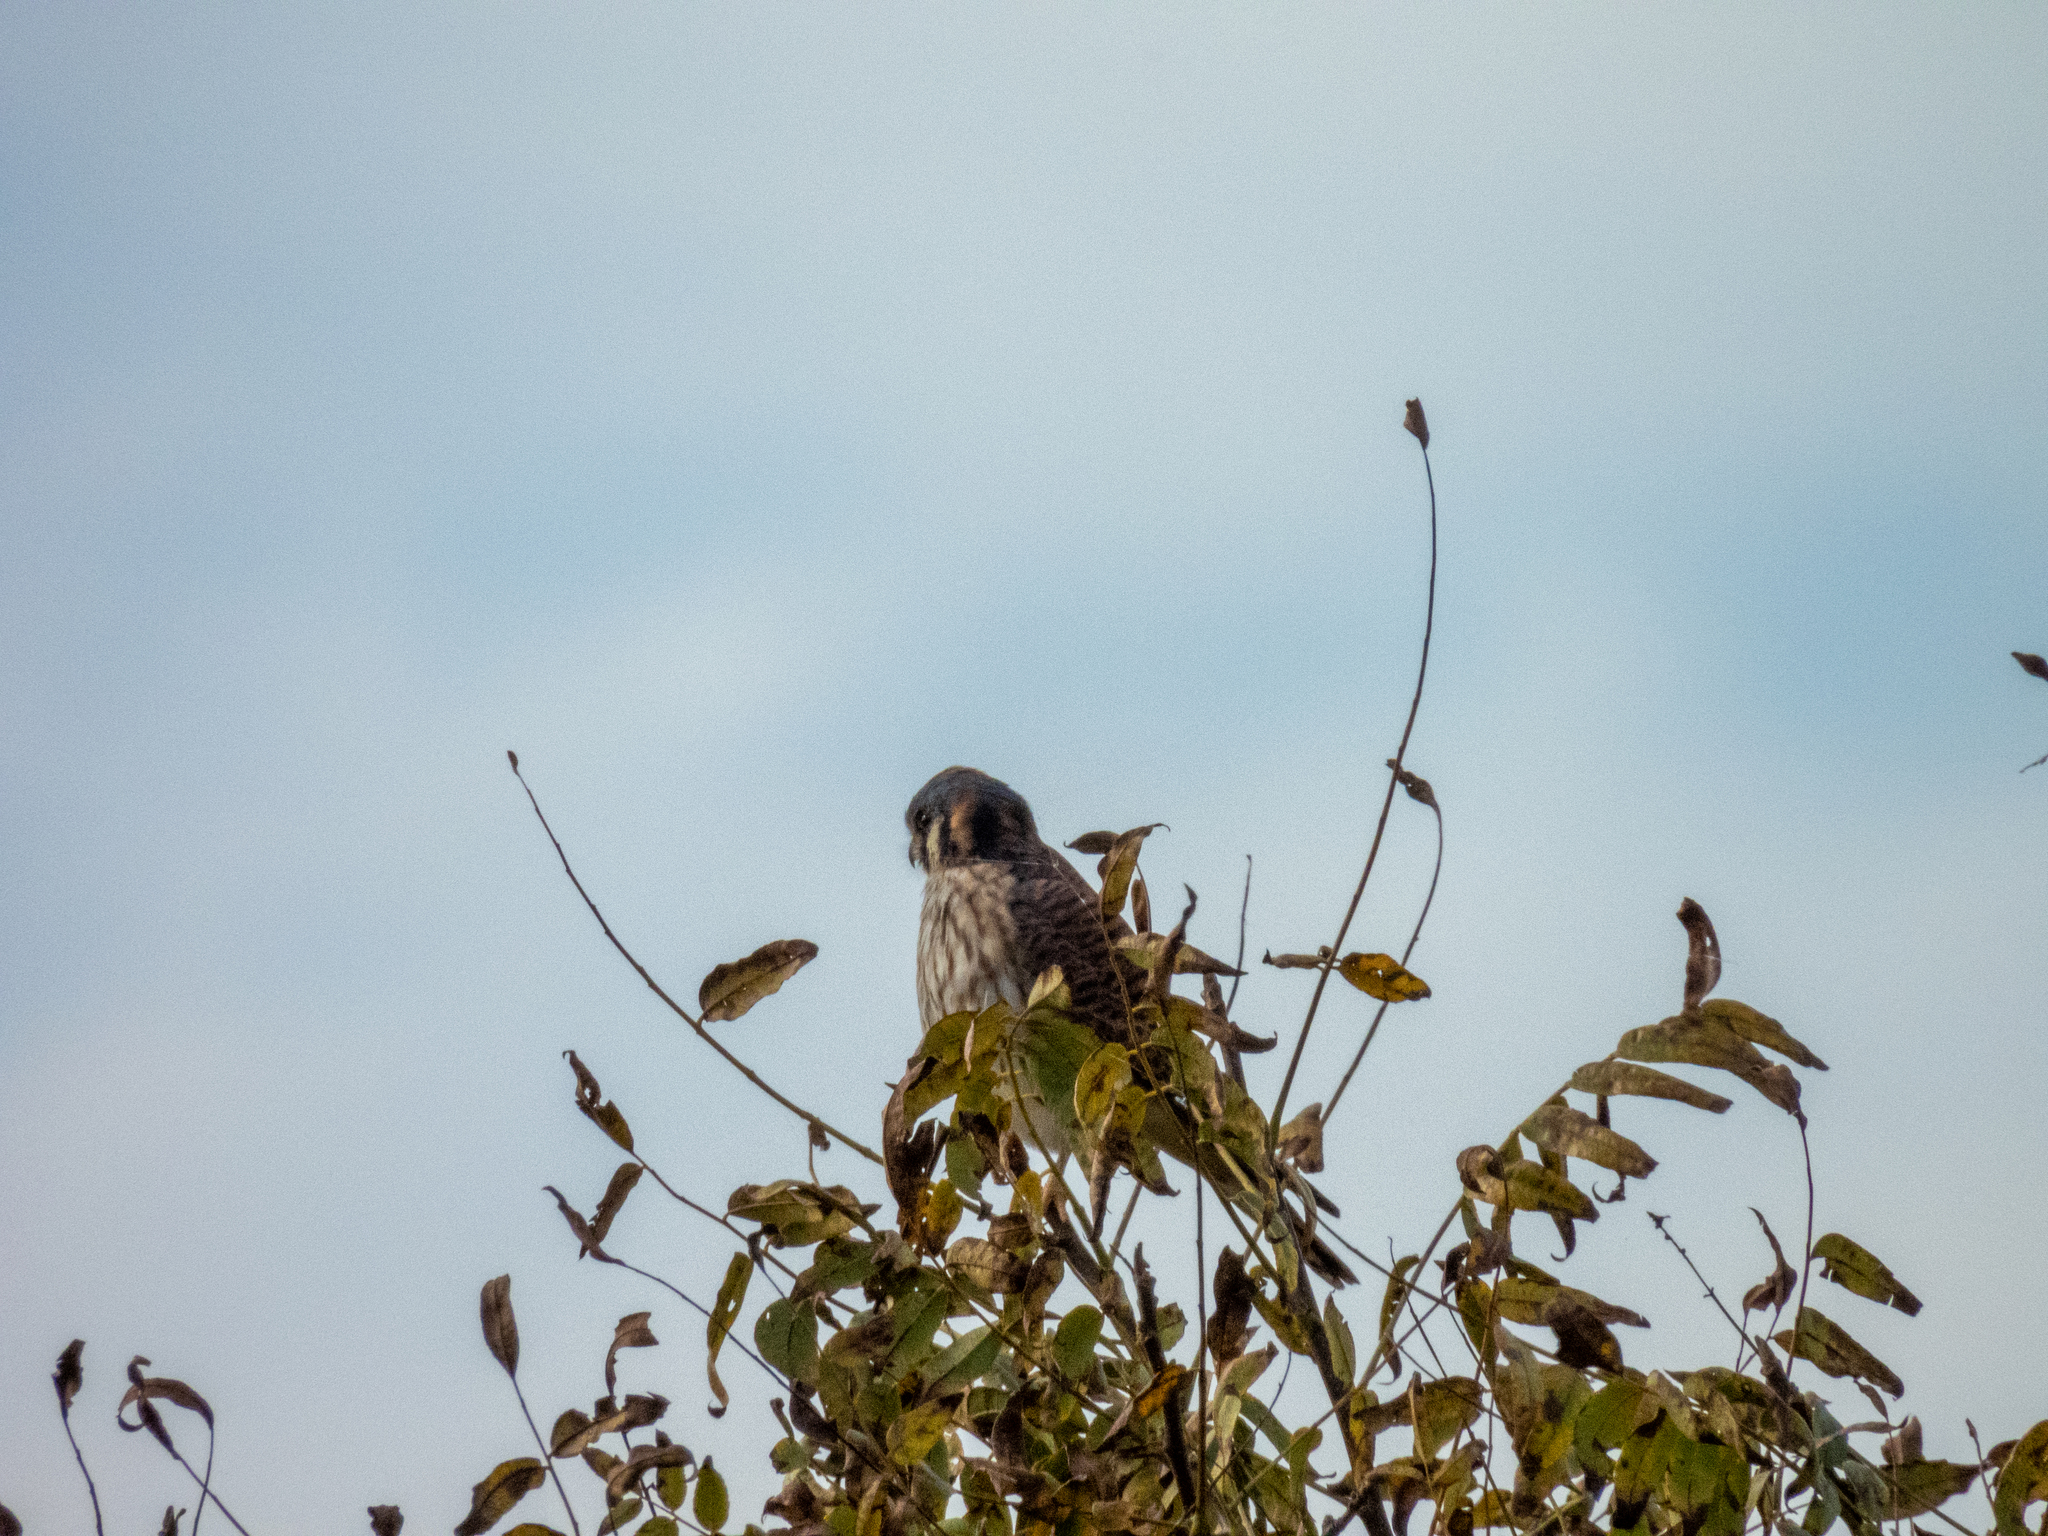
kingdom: Animalia
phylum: Chordata
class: Aves
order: Falconiformes
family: Falconidae
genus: Falco
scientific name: Falco sparverius
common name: American kestrel
